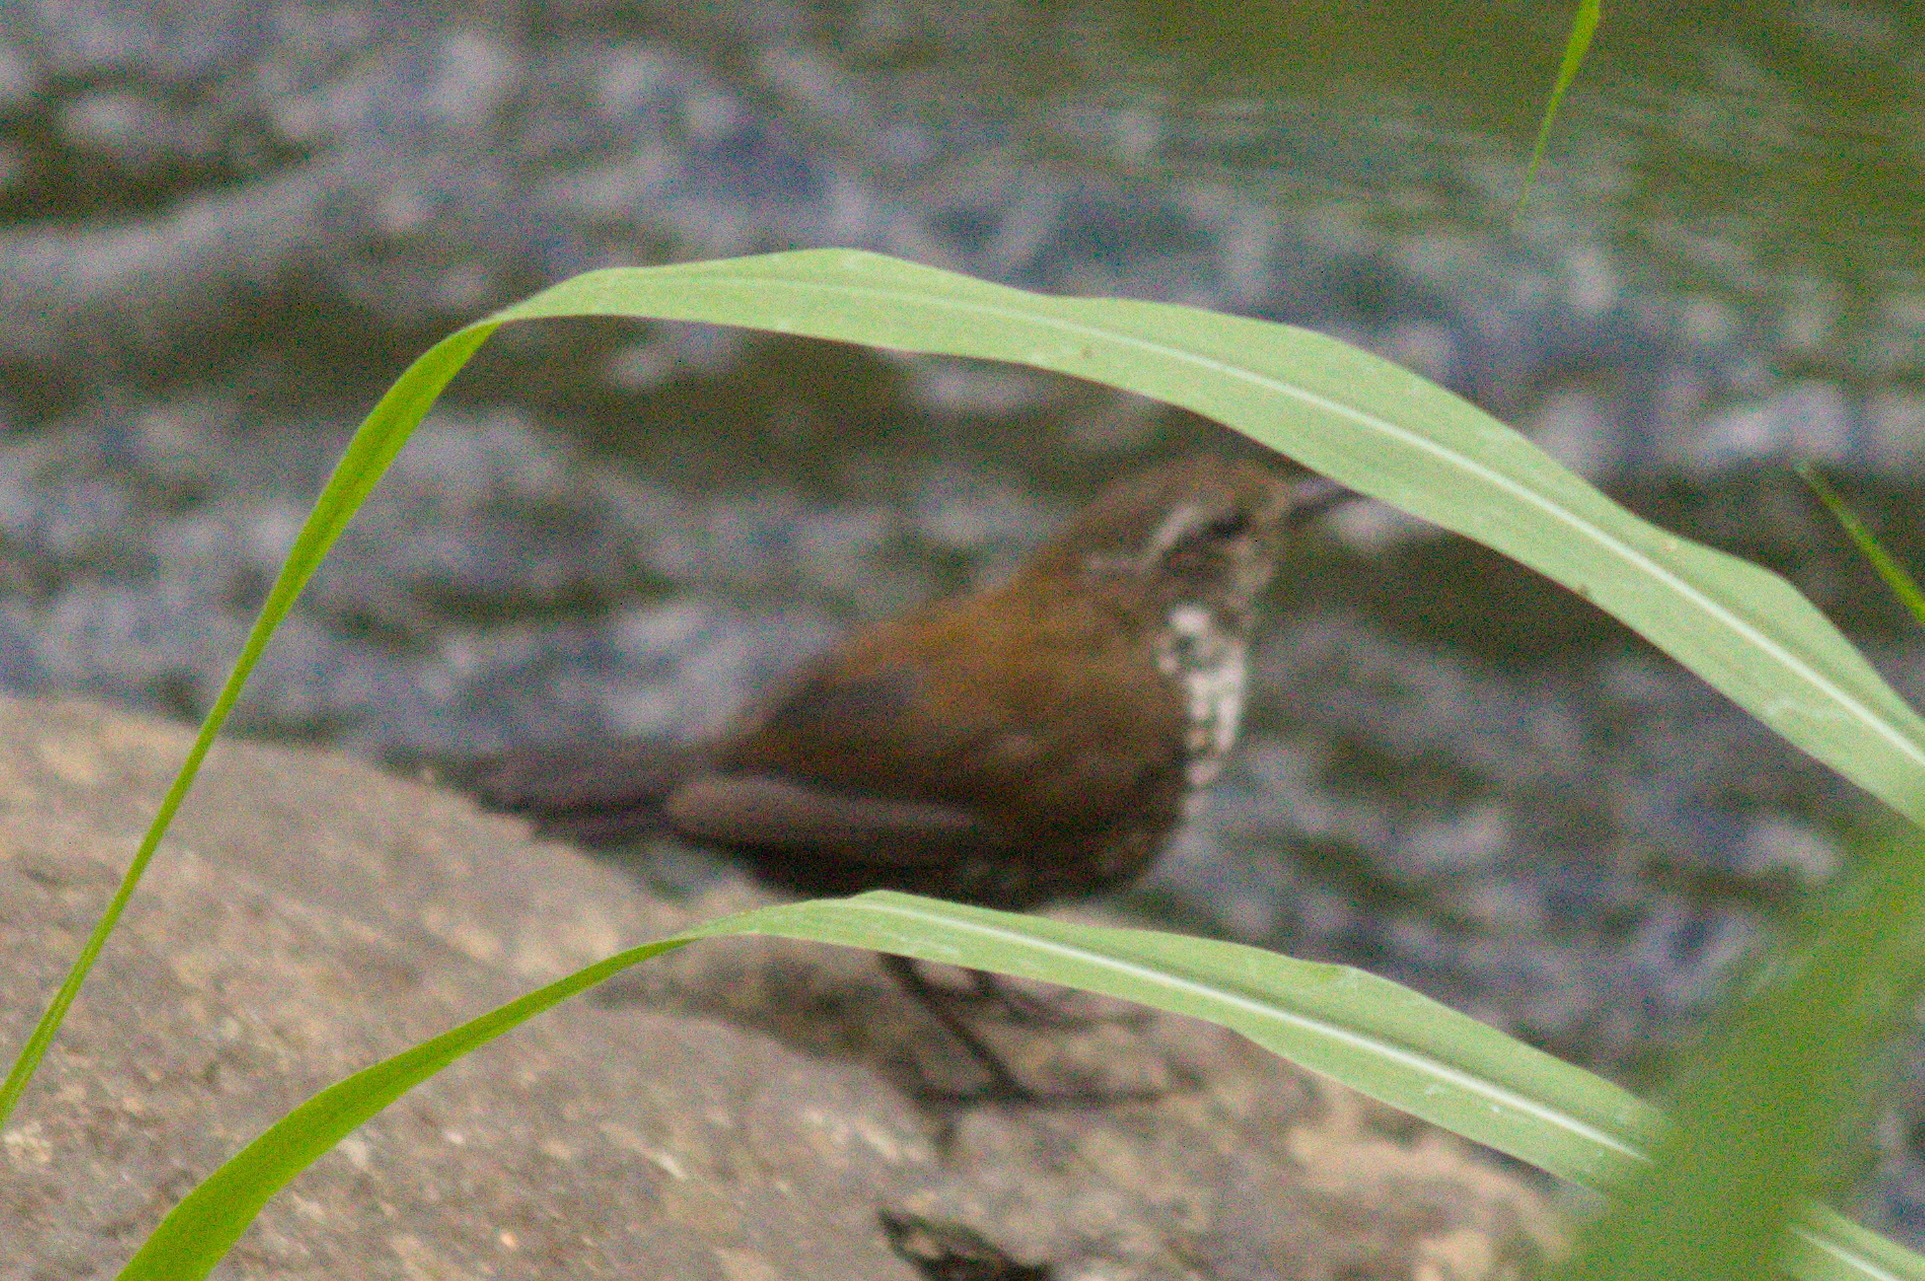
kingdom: Animalia
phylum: Chordata
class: Aves
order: Passeriformes
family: Furnariidae
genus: Lochmias
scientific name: Lochmias nematura
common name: Sharp-tailed streamcreeper
